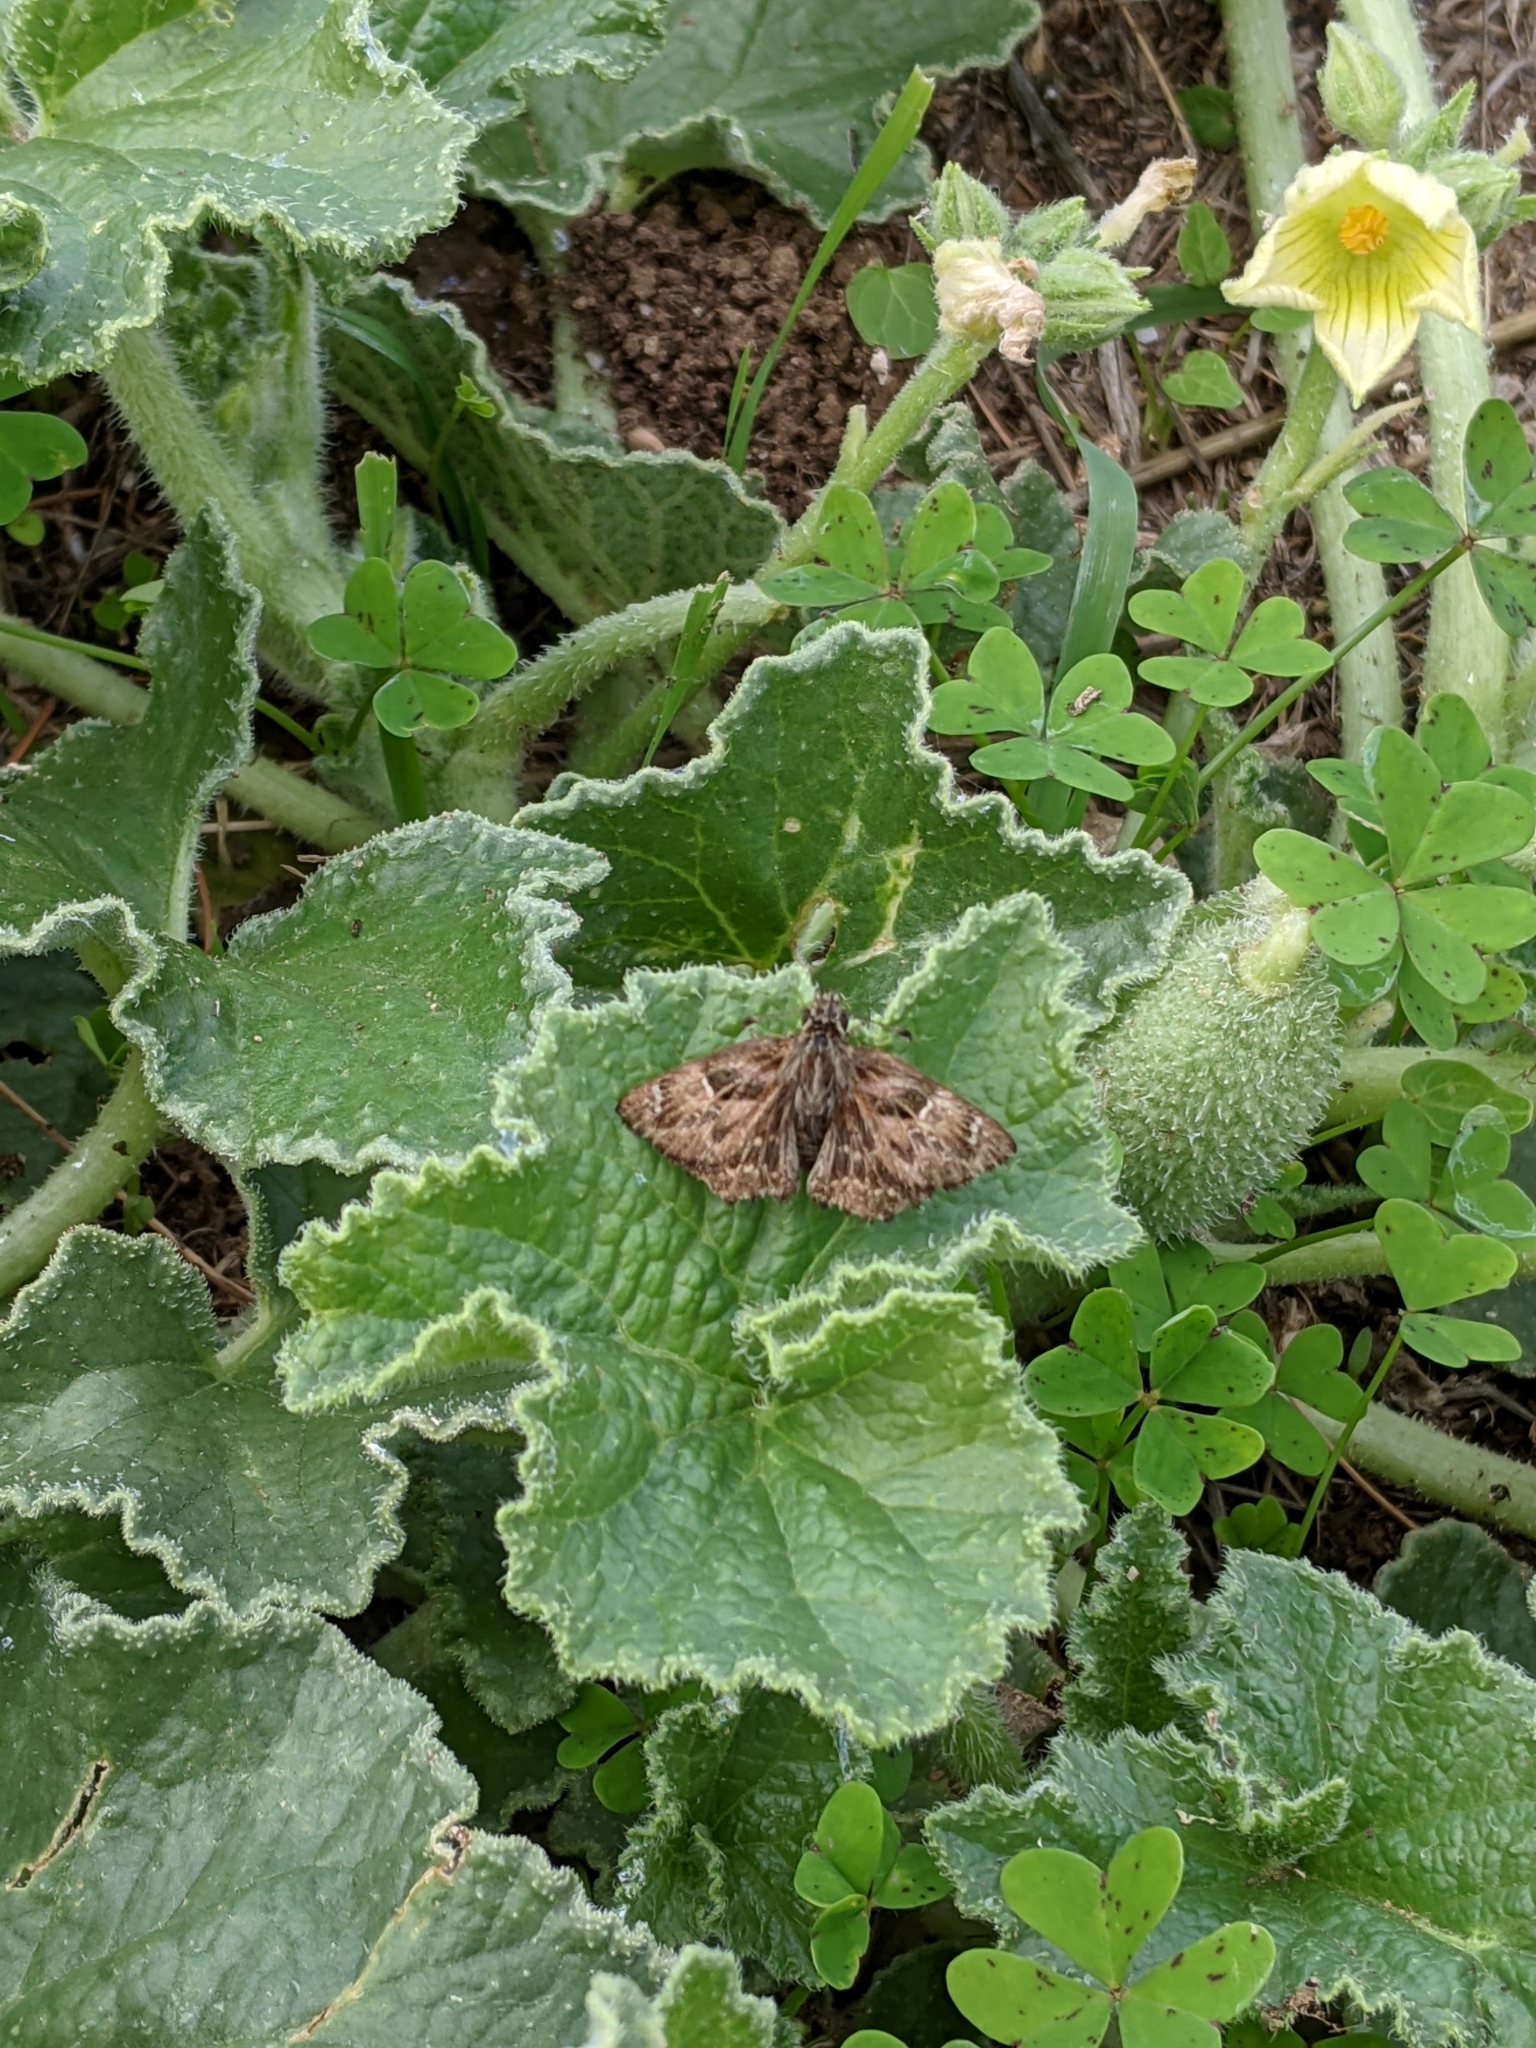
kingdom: Animalia
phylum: Arthropoda
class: Insecta
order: Lepidoptera
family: Hesperiidae
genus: Carcharodus
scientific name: Carcharodus alceae
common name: Mallow skipper
